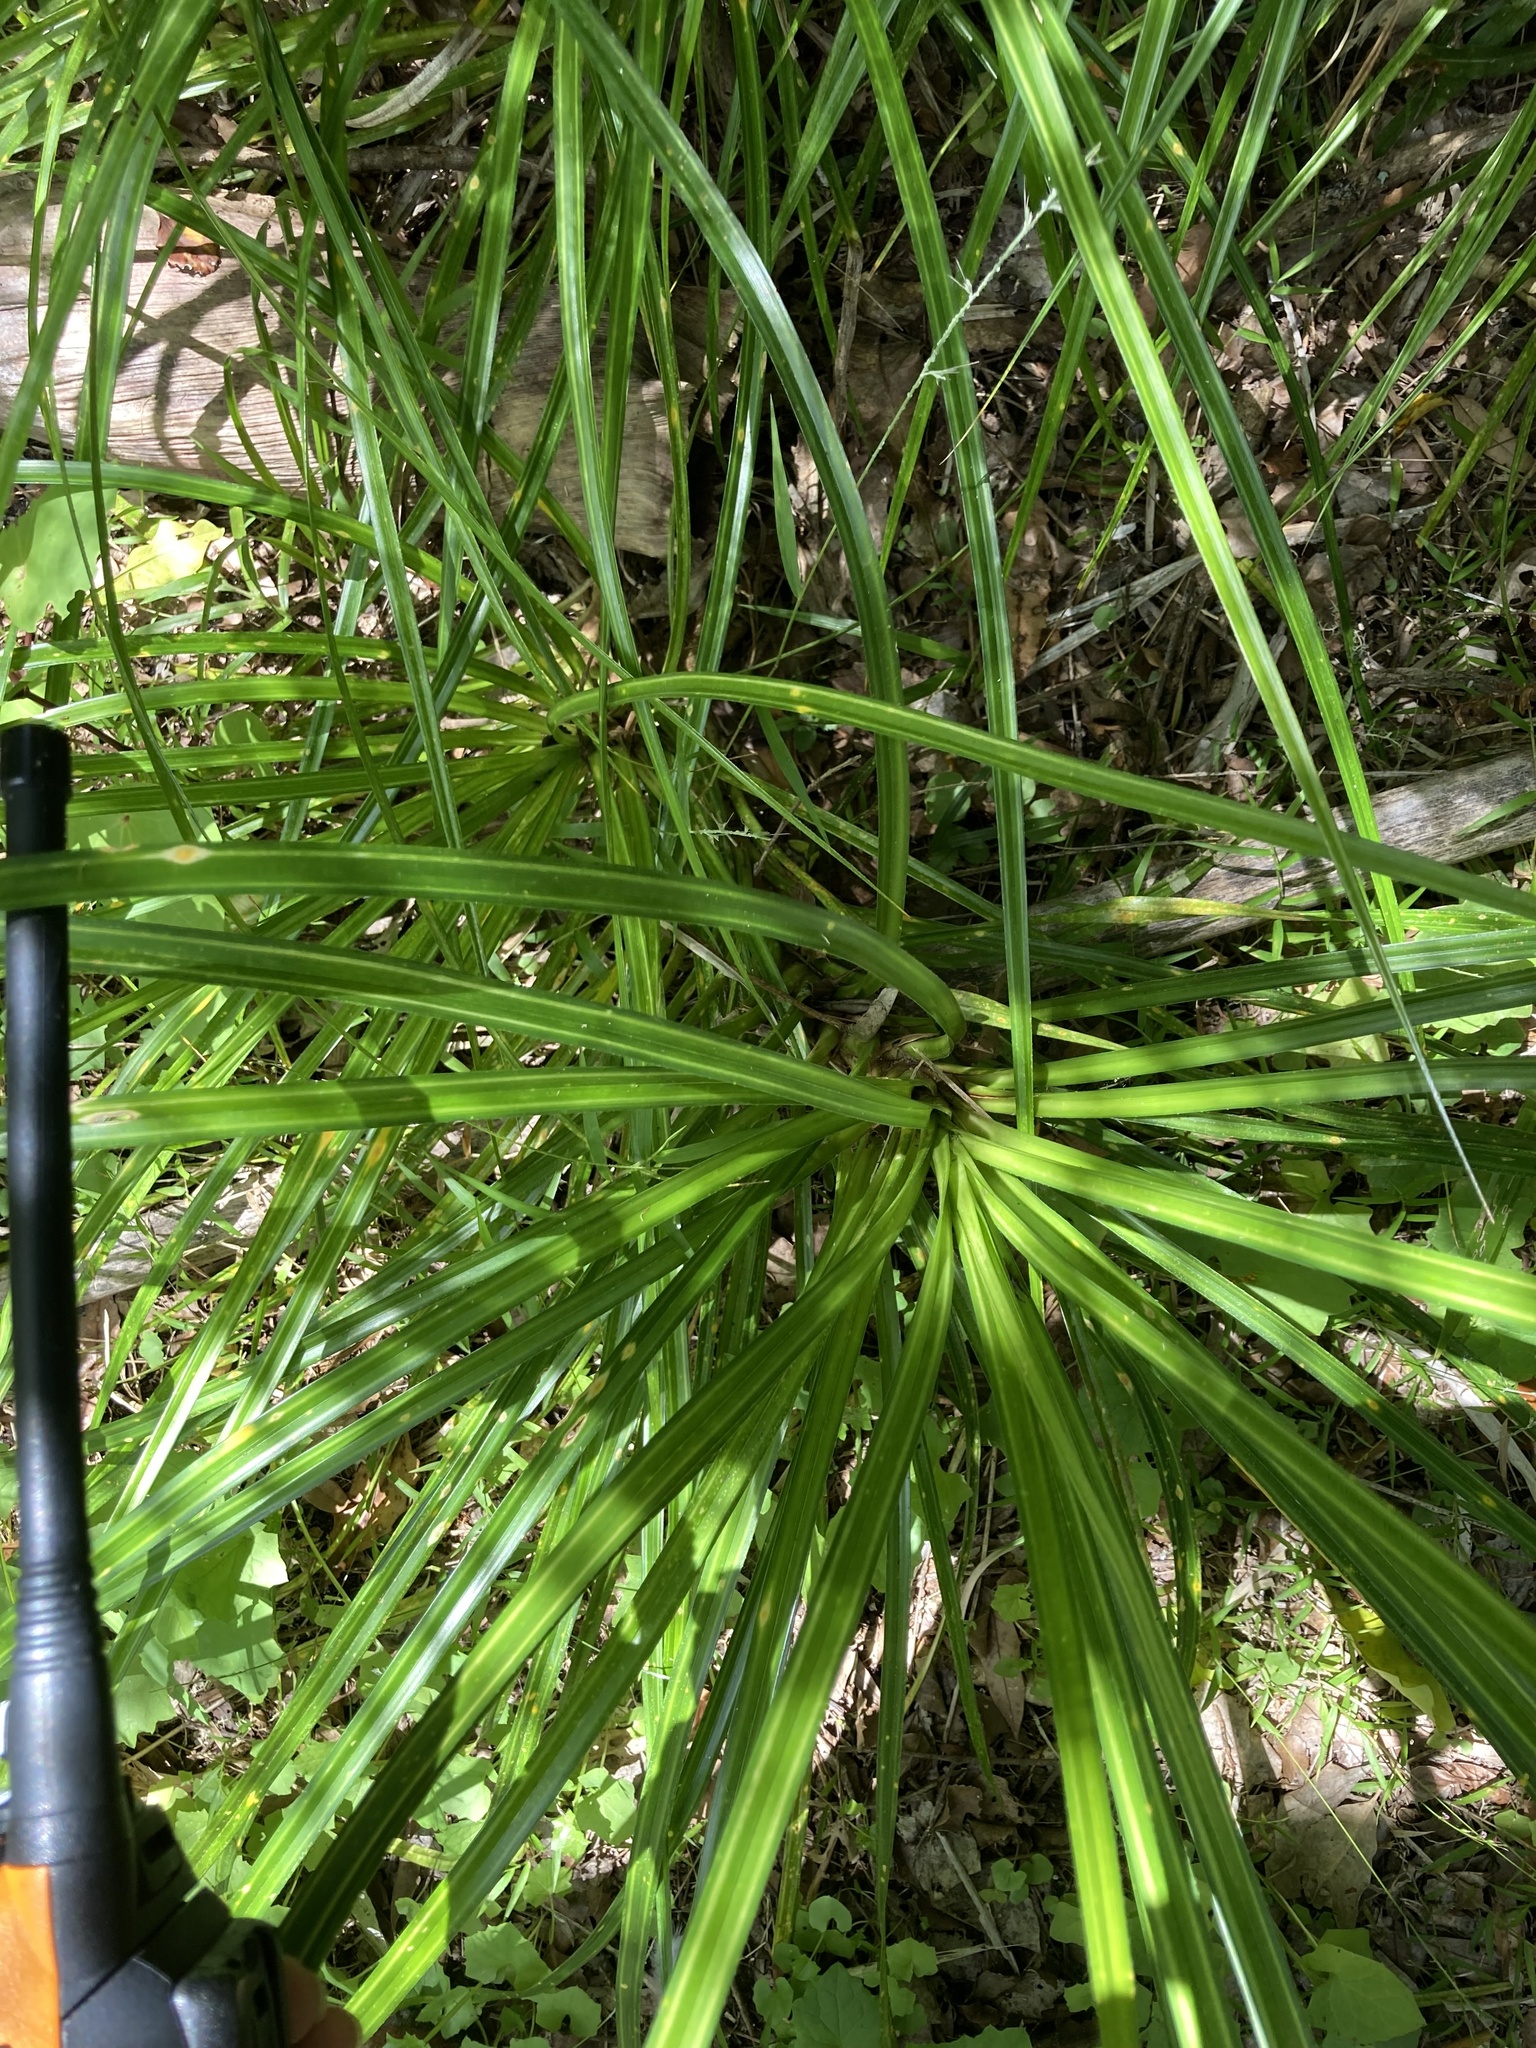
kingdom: Plantae
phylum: Tracheophyta
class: Liliopsida
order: Pandanales
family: Pandanaceae
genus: Freycinetia
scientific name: Freycinetia banksii
